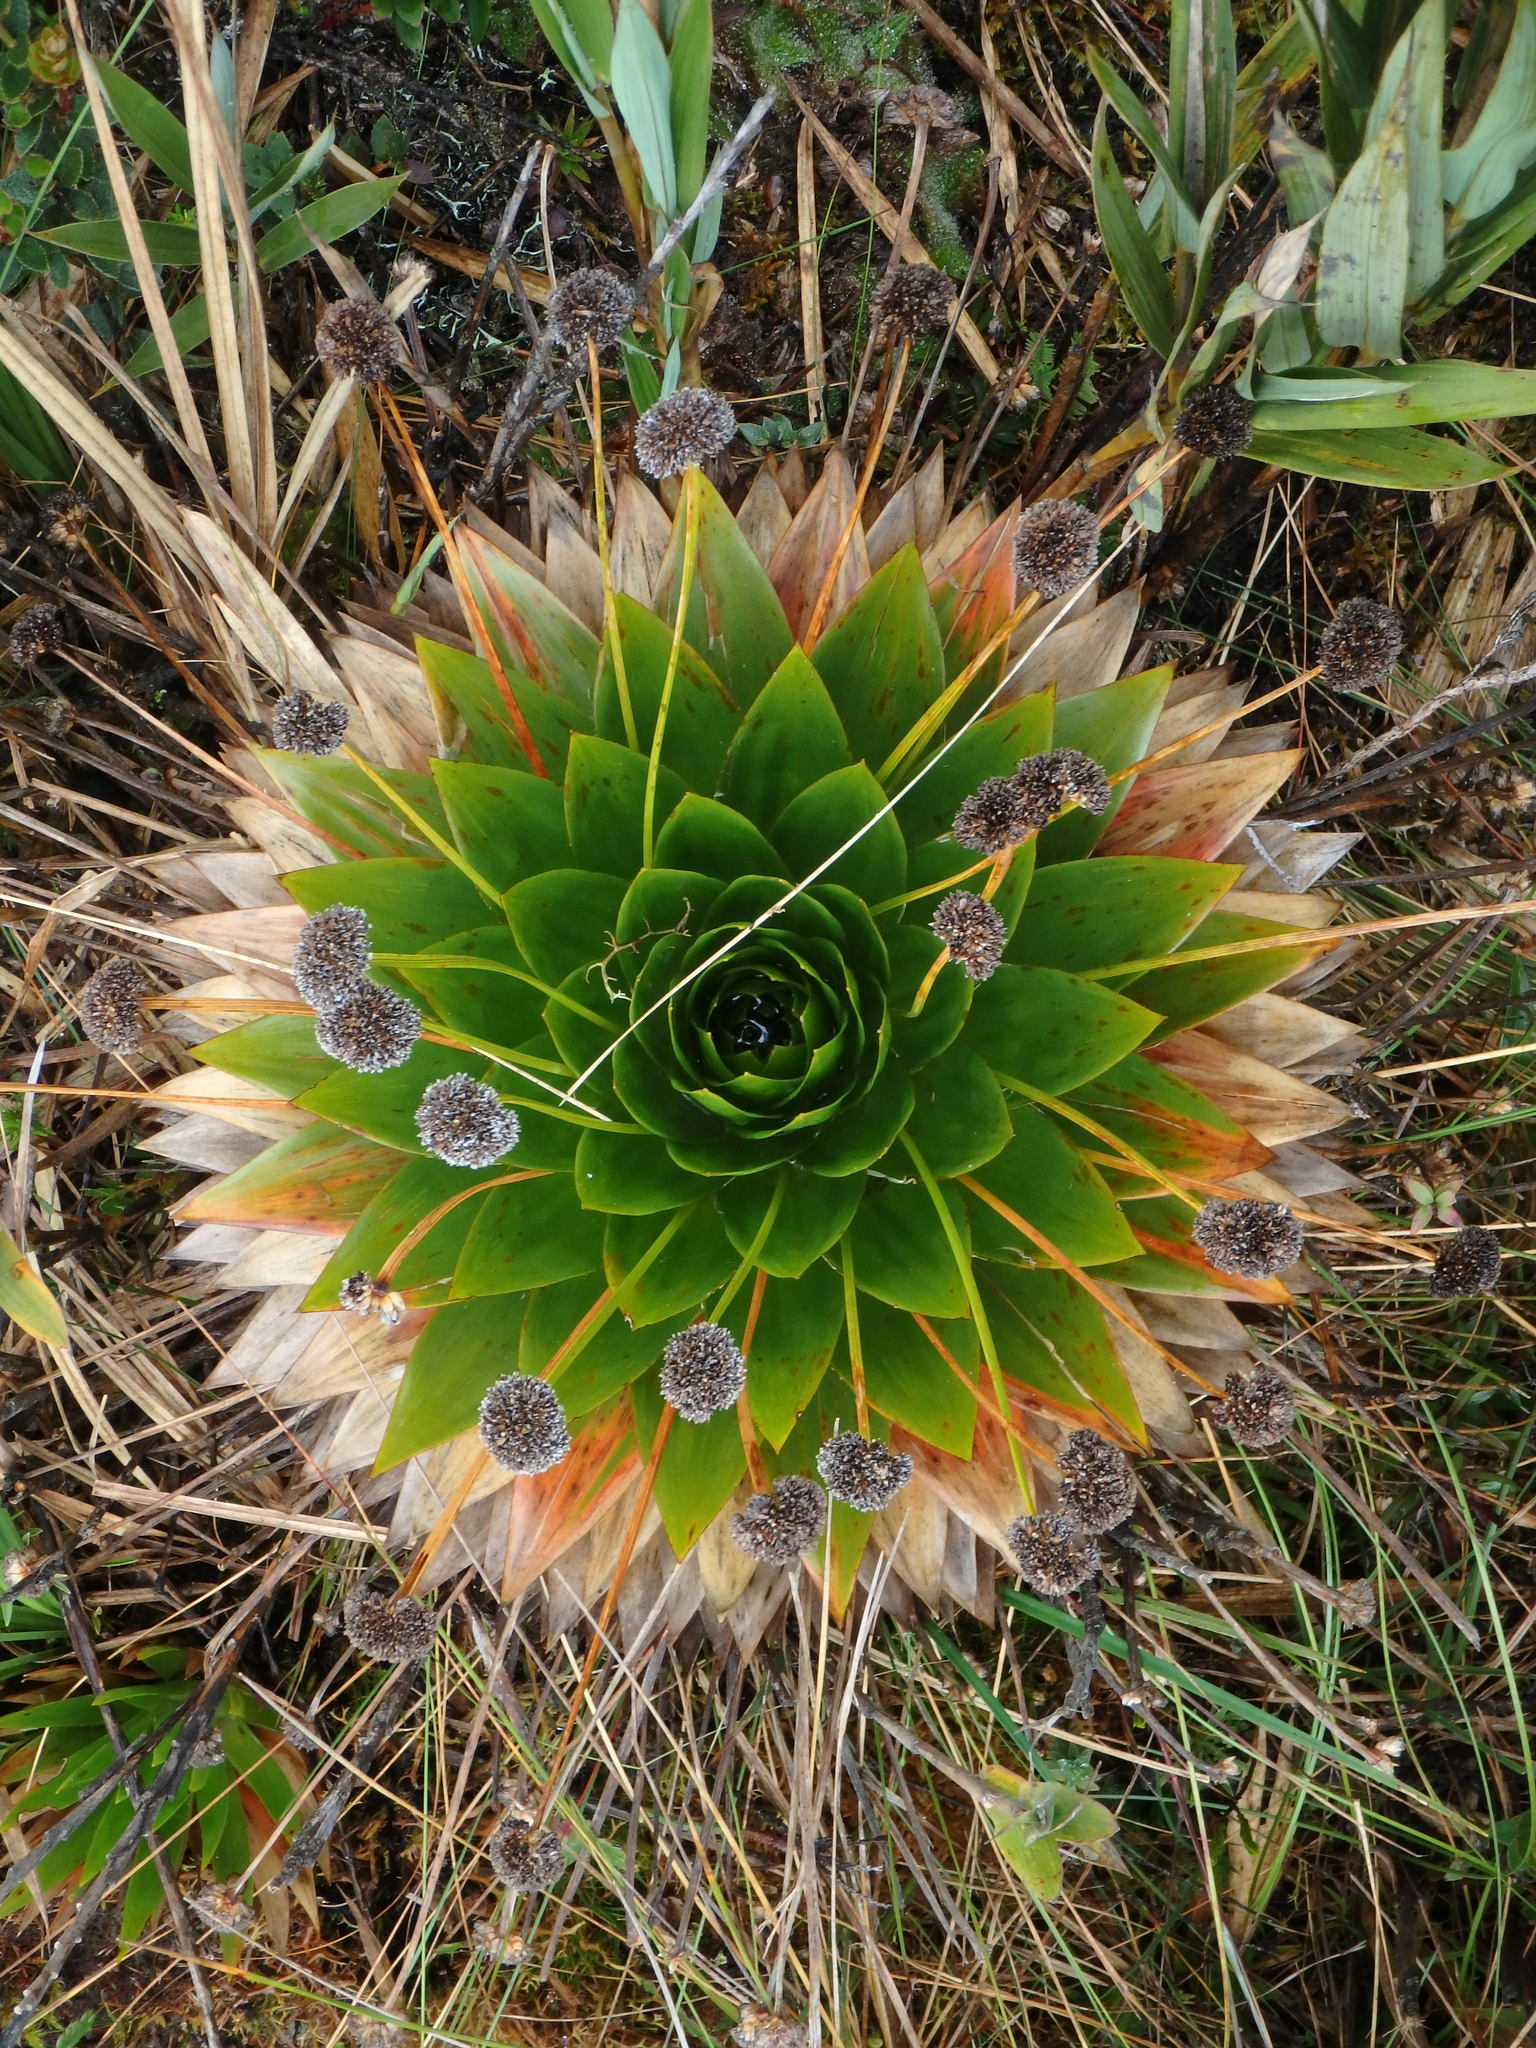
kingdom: Plantae
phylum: Tracheophyta
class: Liliopsida
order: Poales
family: Eriocaulaceae
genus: Paepalanthus
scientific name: Paepalanthus alpinus
